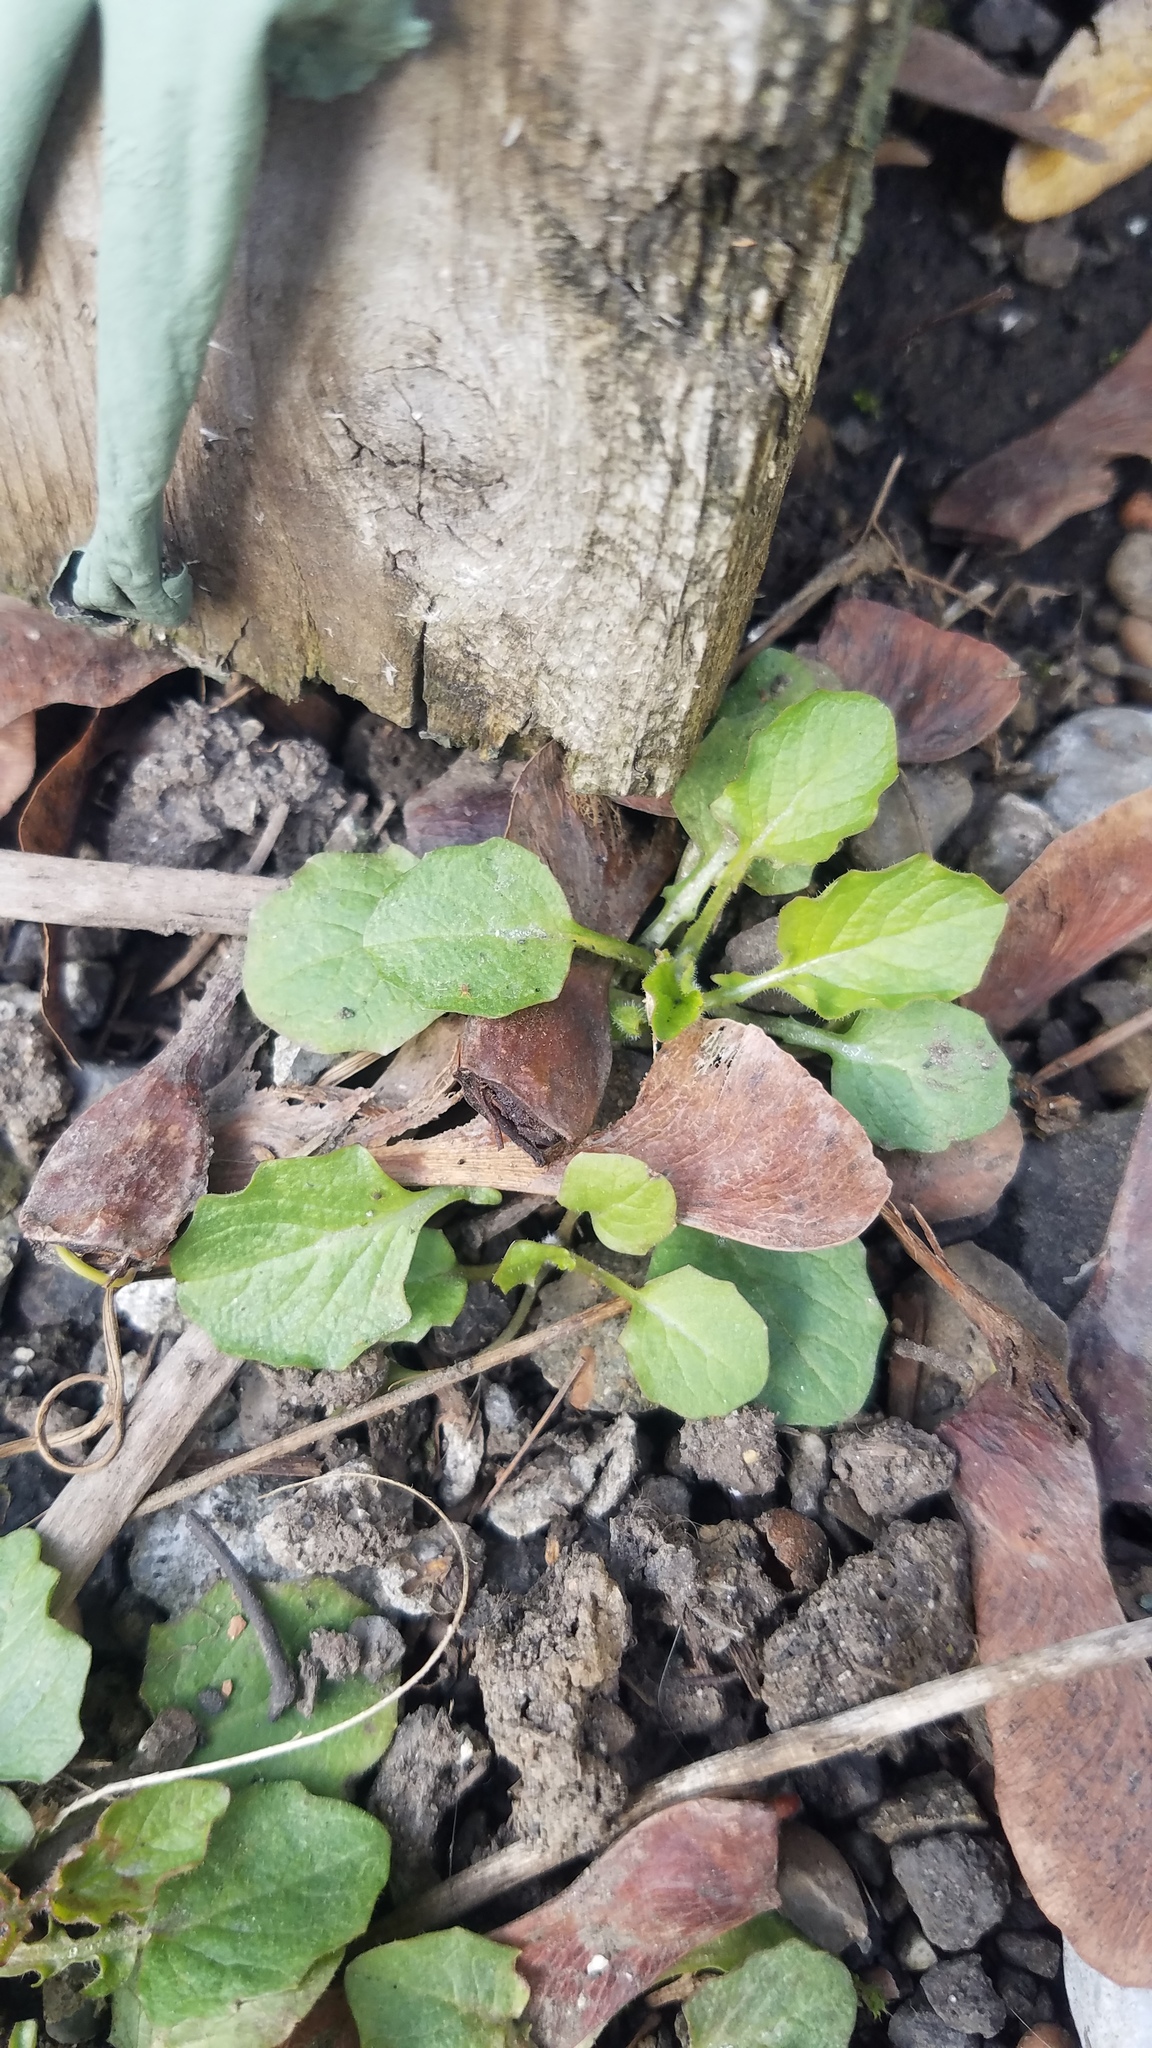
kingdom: Plantae
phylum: Tracheophyta
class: Magnoliopsida
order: Asterales
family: Asteraceae
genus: Lapsana
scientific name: Lapsana communis
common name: Nipplewort
